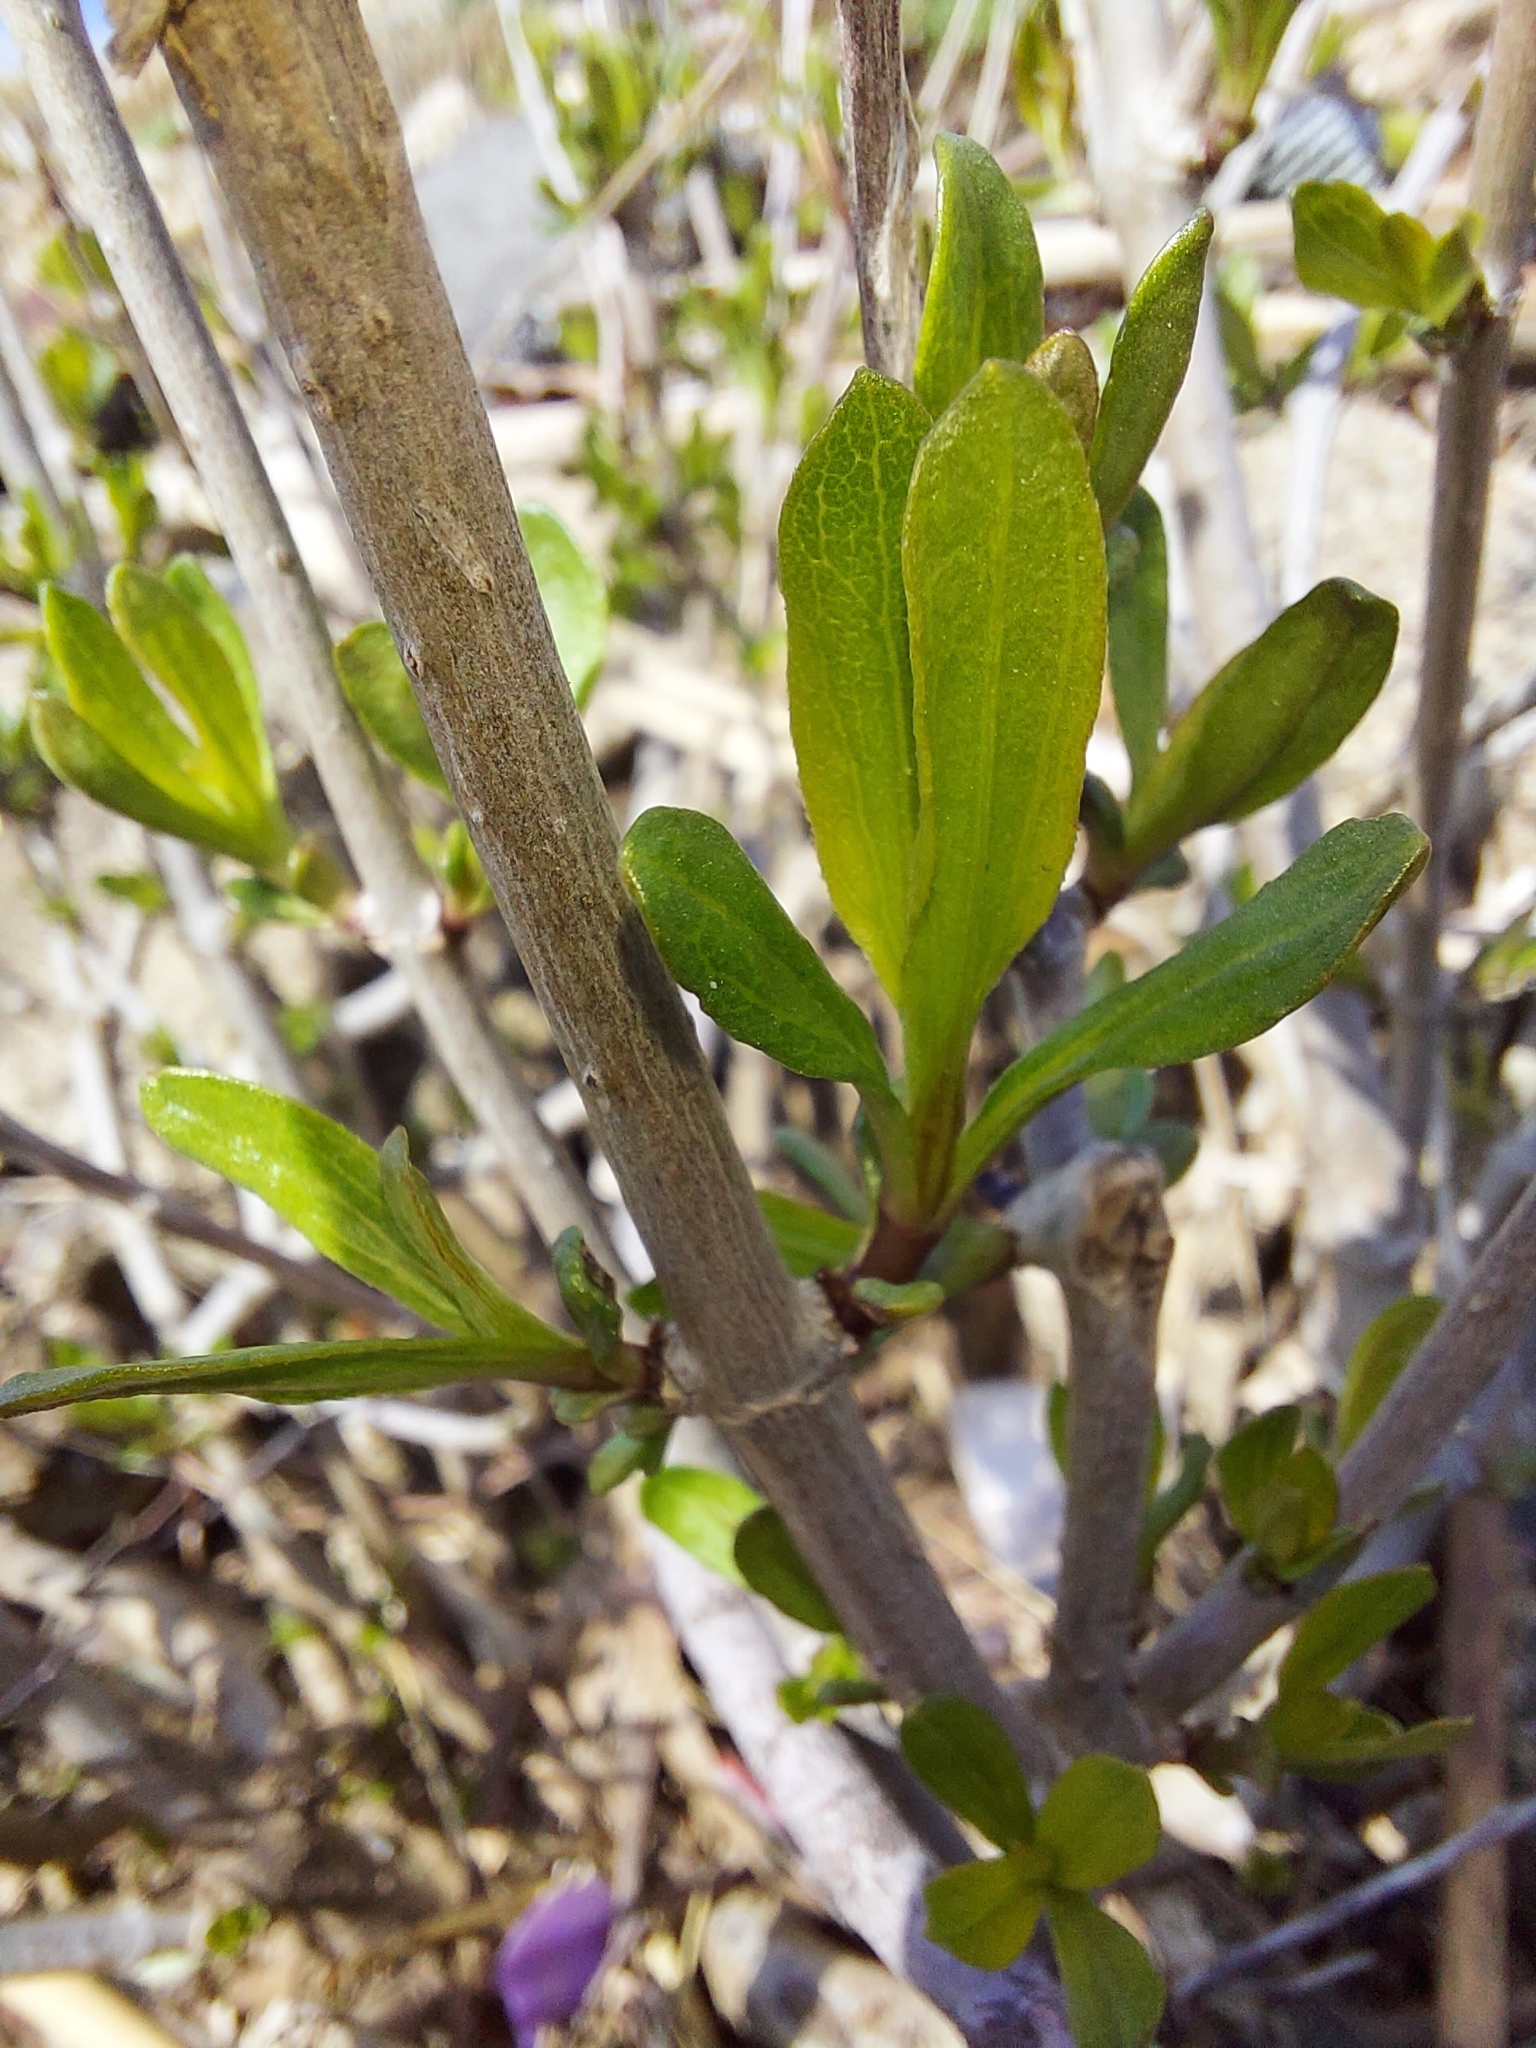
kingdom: Plantae
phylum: Tracheophyta
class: Magnoliopsida
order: Asterales
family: Asteraceae
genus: Iva
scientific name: Iva frutescens
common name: Big-leaved marsh-elder
